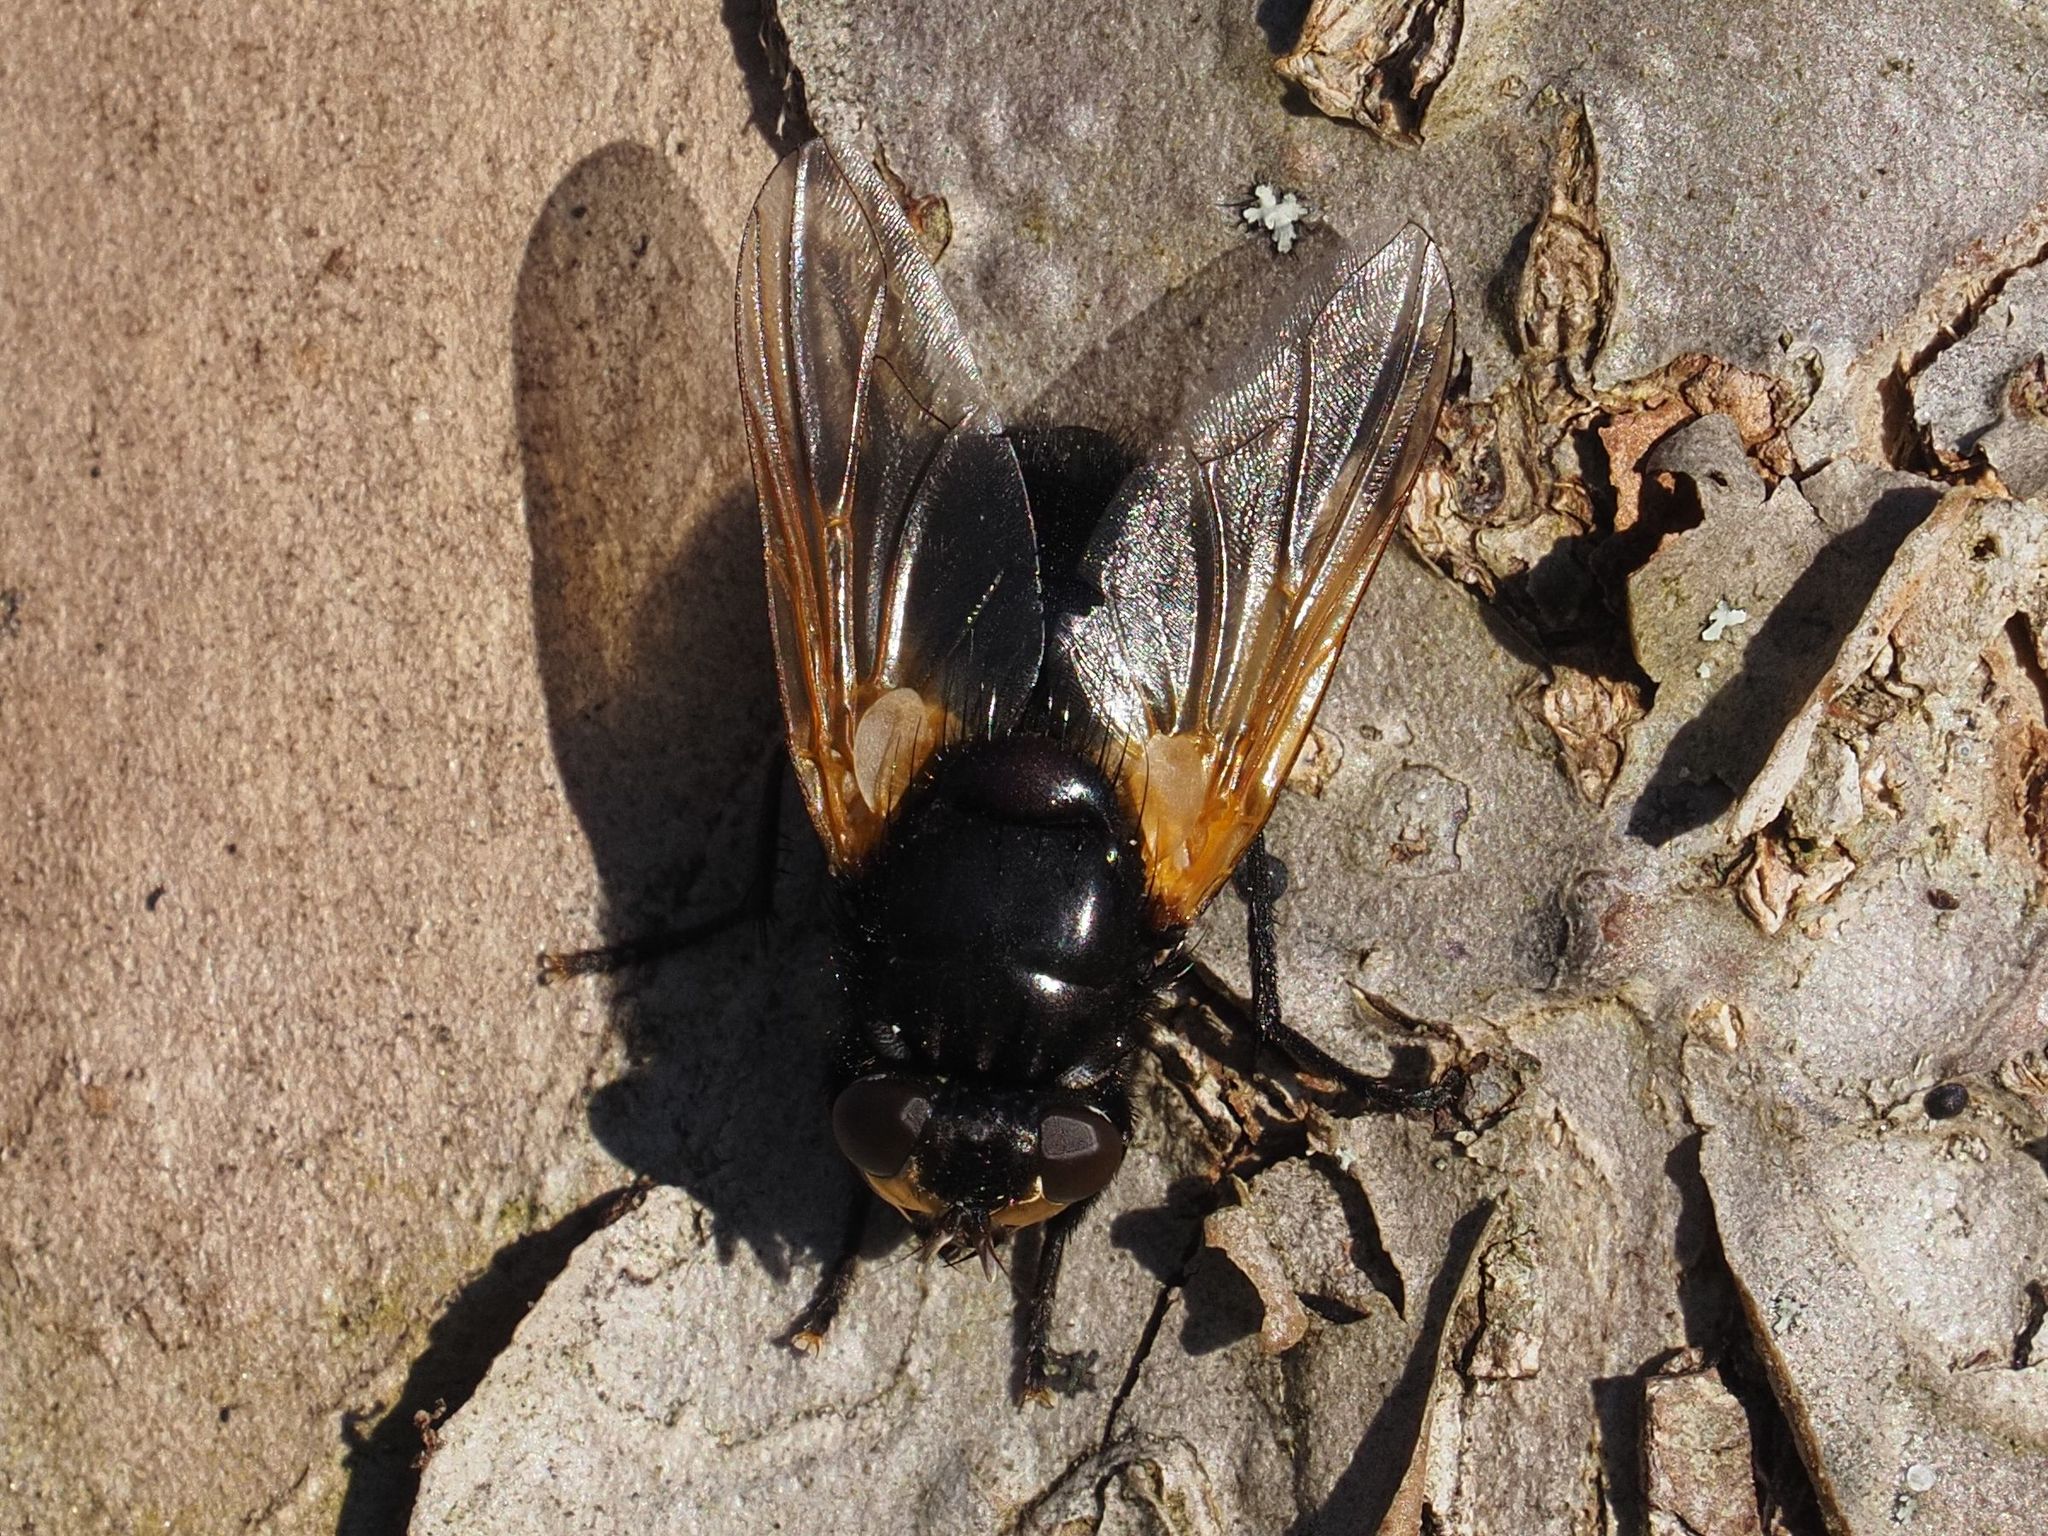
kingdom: Animalia
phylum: Arthropoda
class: Insecta
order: Diptera
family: Muscidae
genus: Mesembrina
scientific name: Mesembrina meridiana
